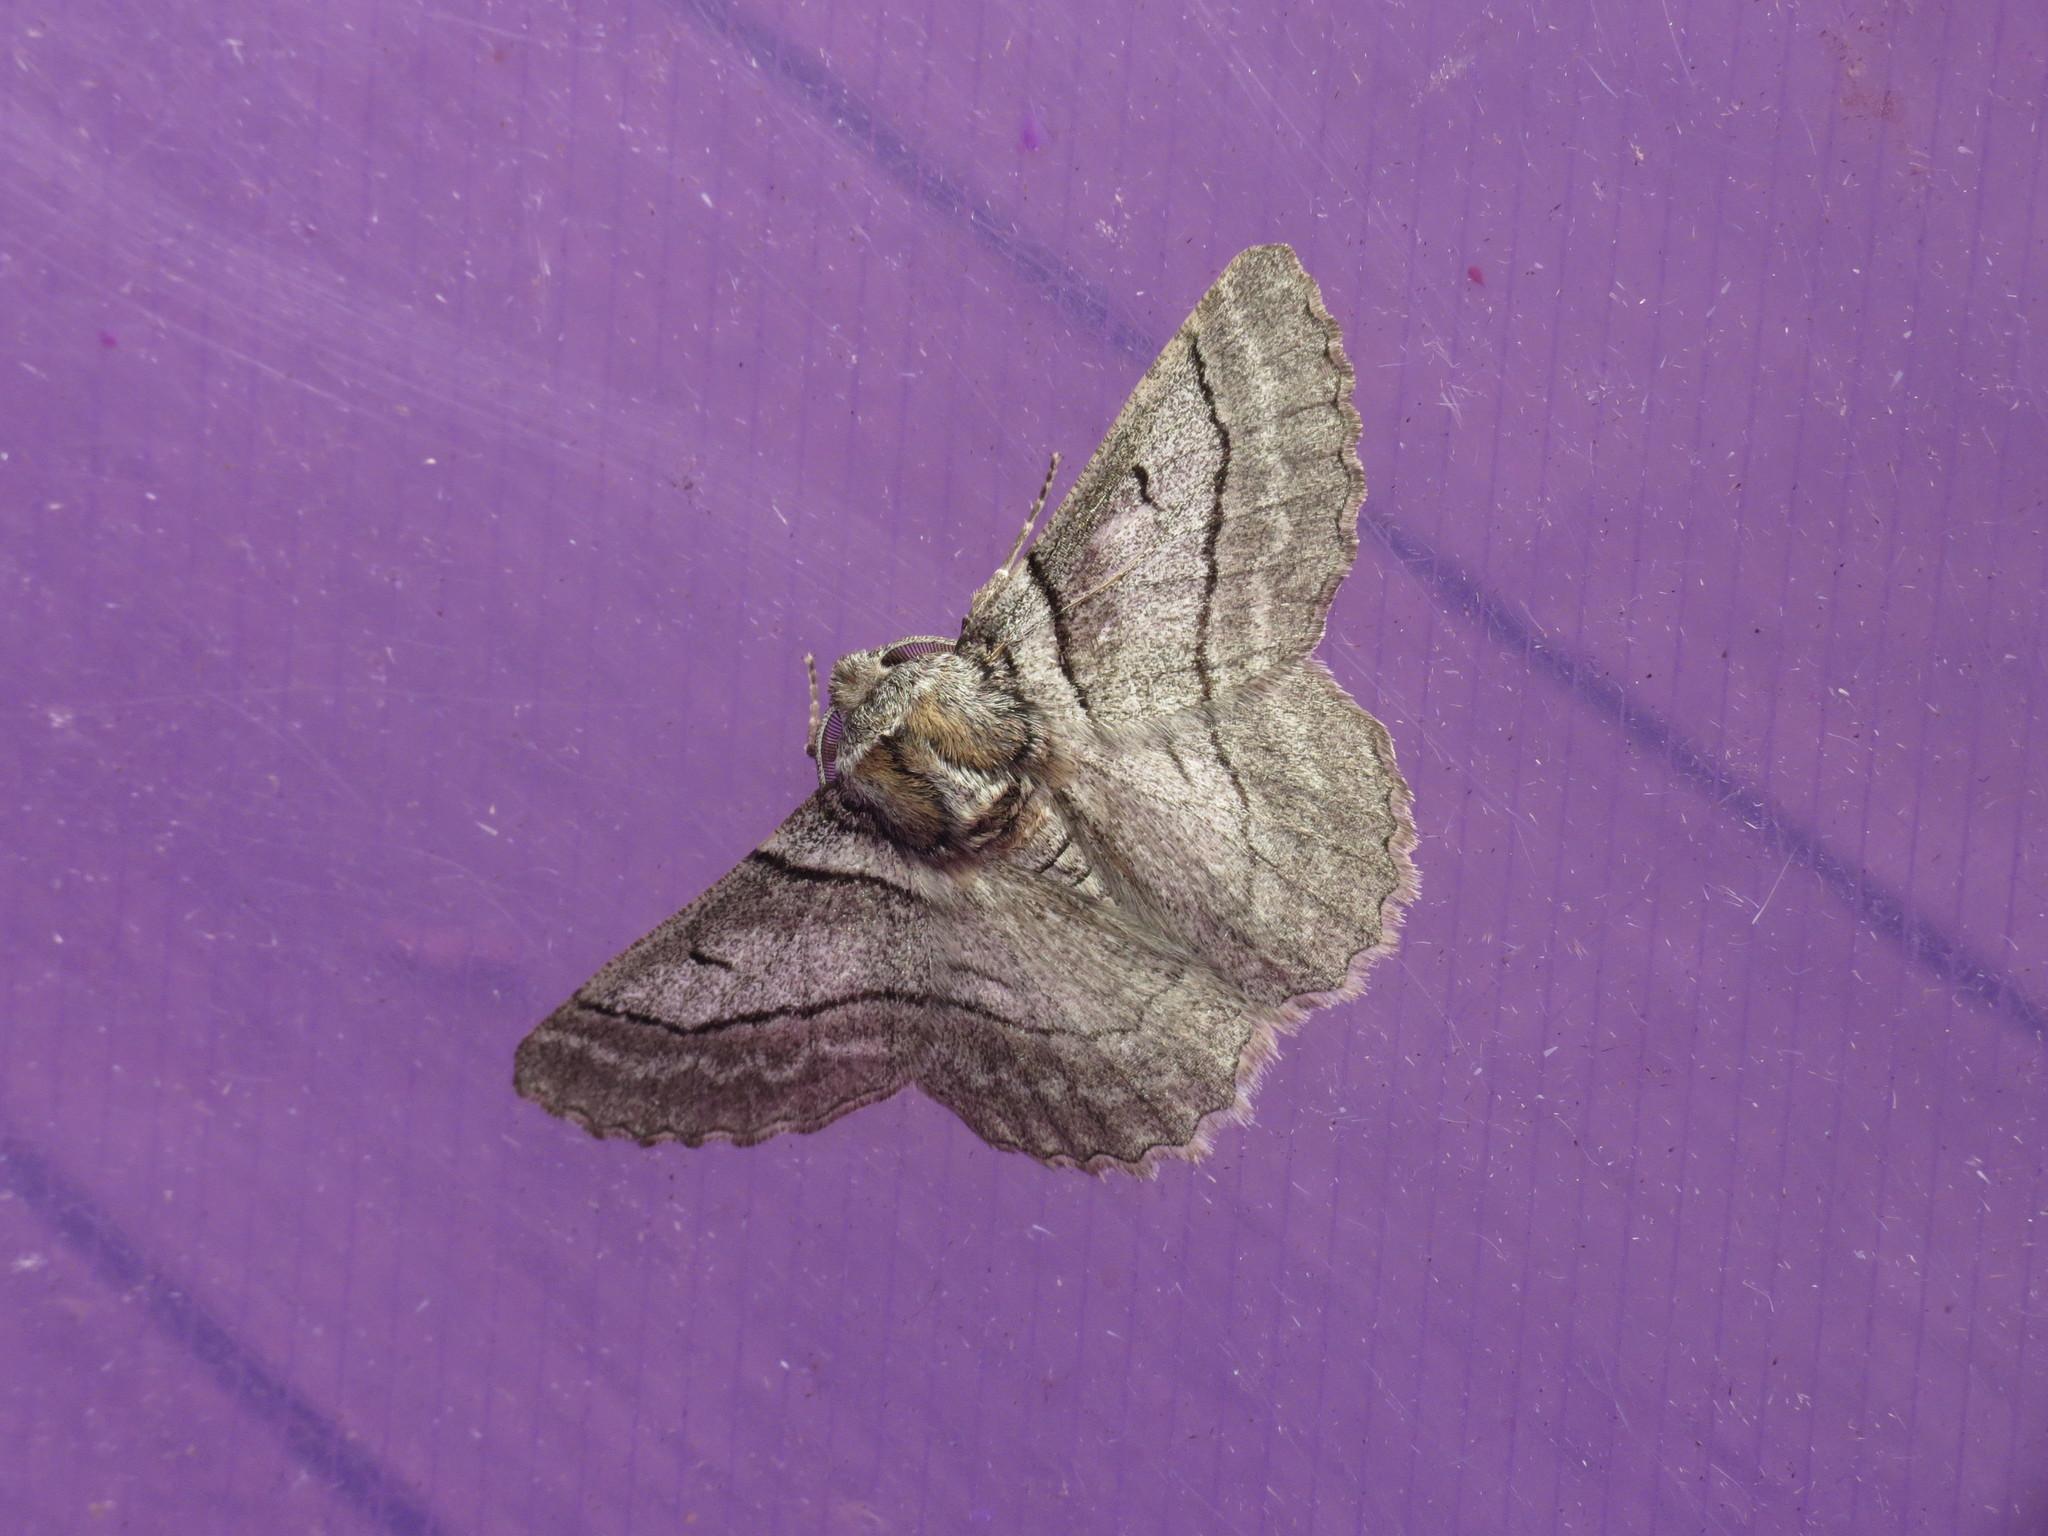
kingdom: Animalia
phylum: Arthropoda
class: Insecta
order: Lepidoptera
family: Geometridae
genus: Hypobapta
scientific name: Hypobapta tachyhalotaria
